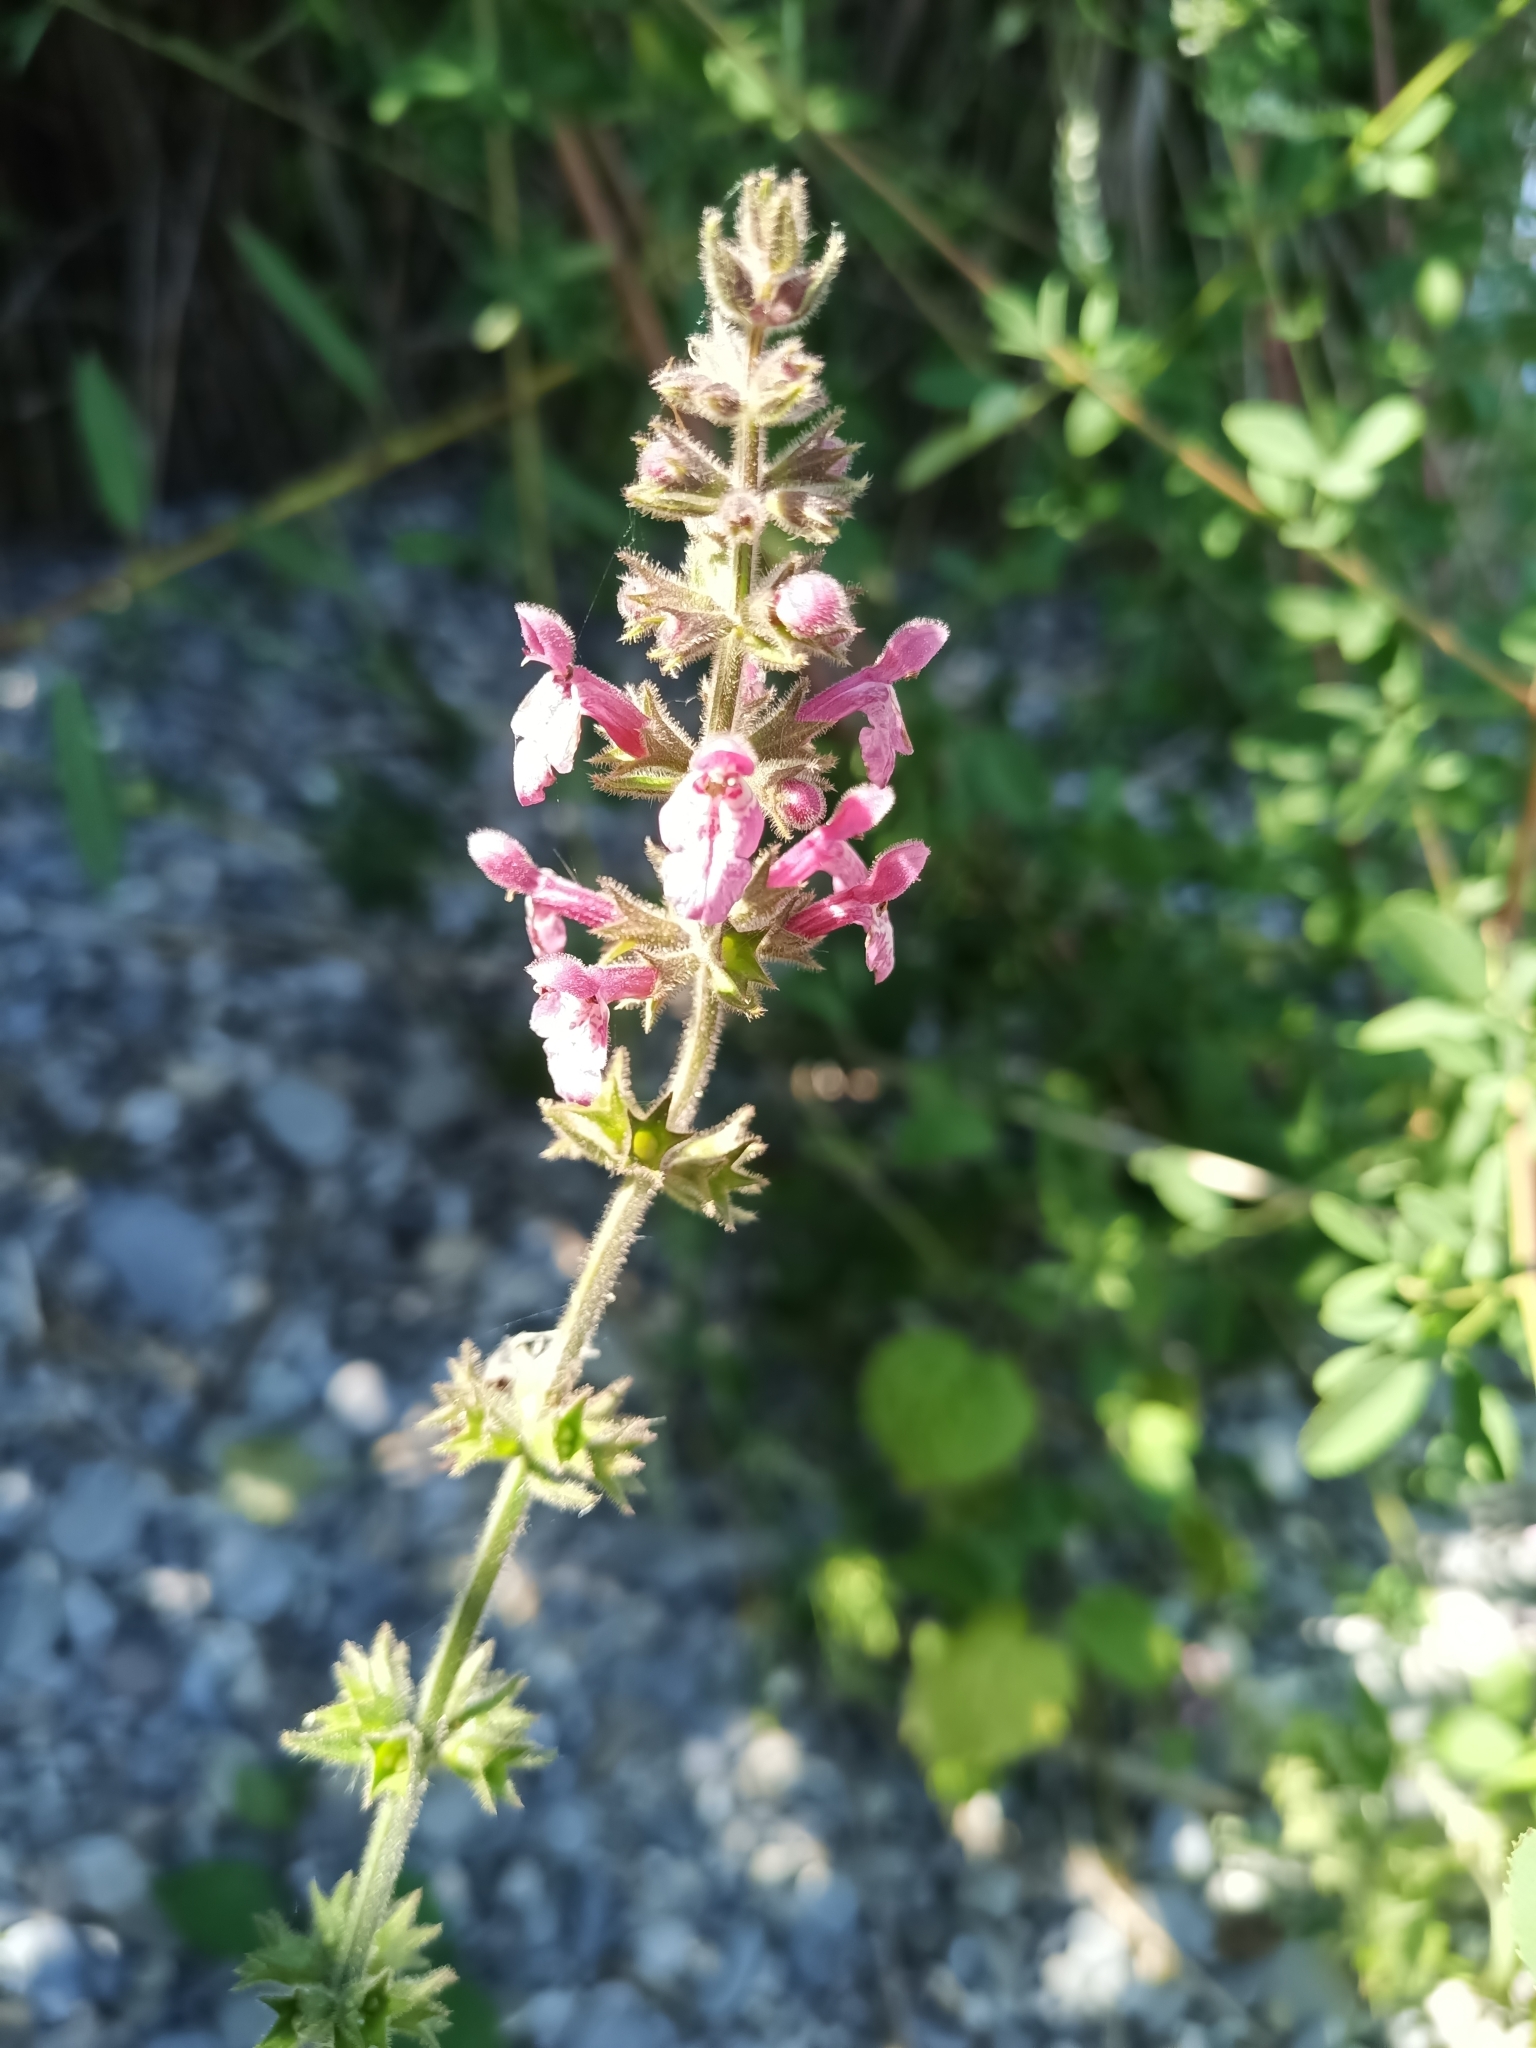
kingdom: Plantae
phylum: Tracheophyta
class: Magnoliopsida
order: Lamiales
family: Lamiaceae
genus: Stachys
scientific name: Stachys sylvatica
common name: Hedge woundwort
